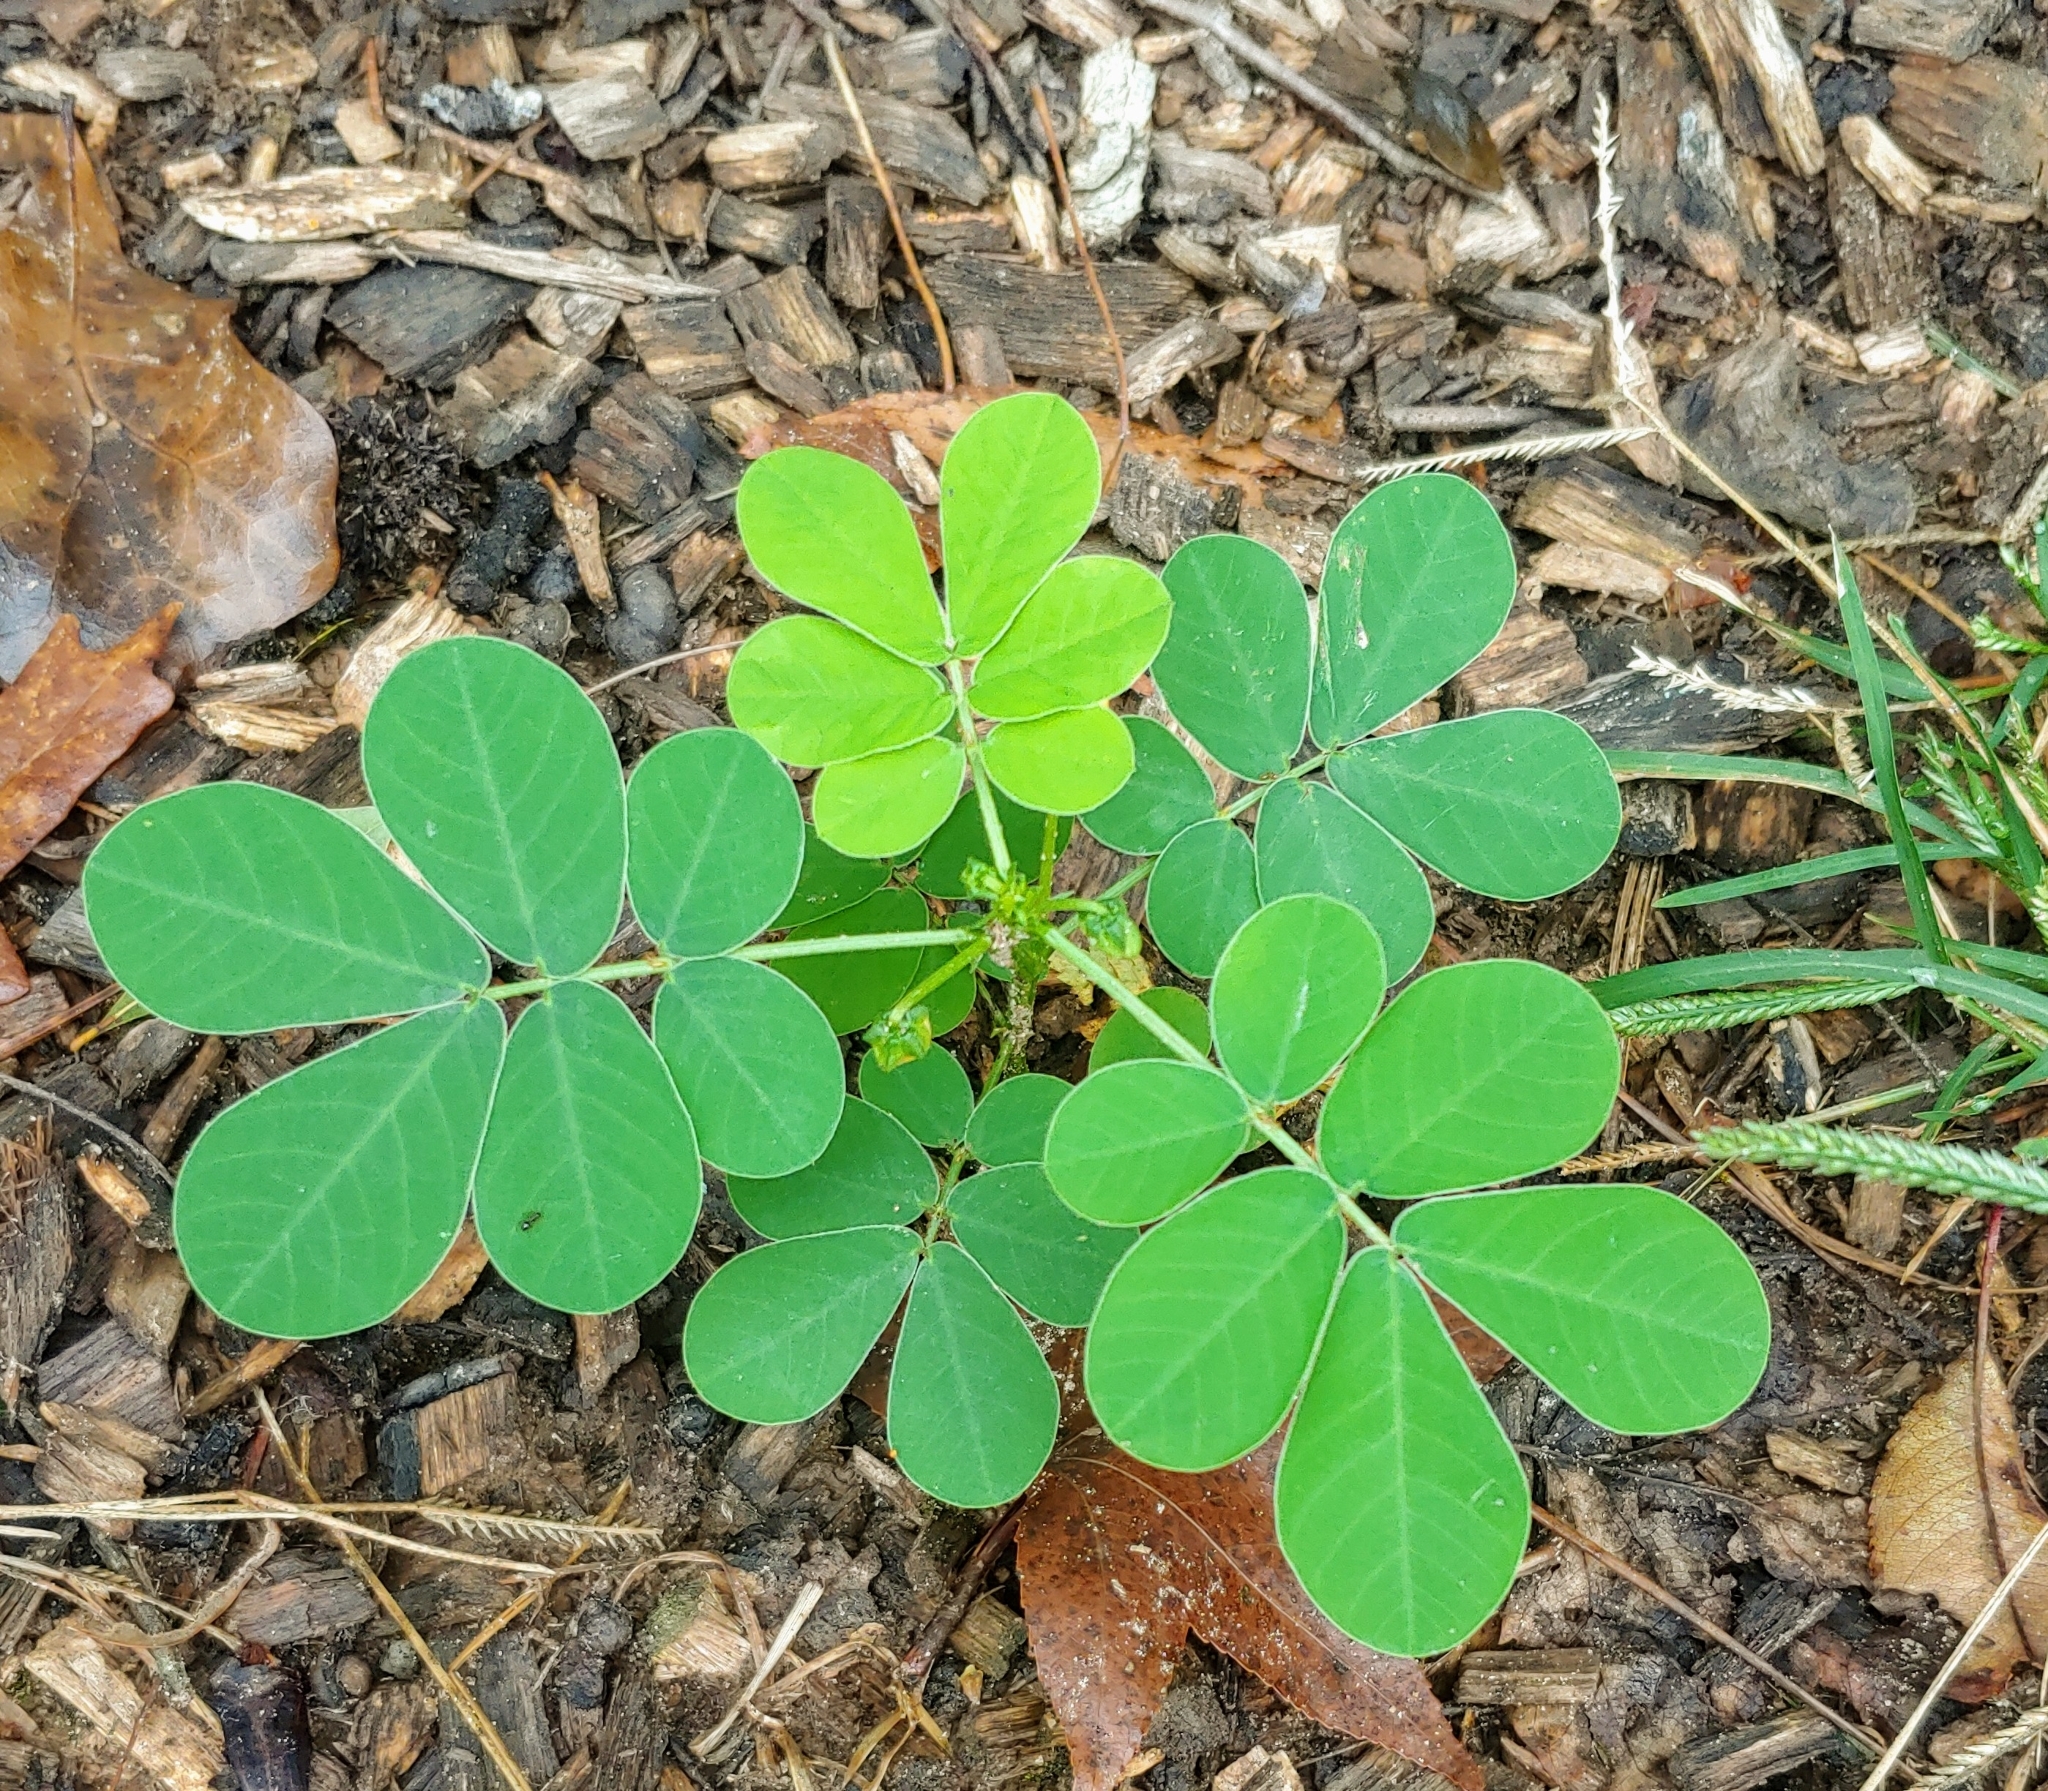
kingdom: Plantae
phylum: Tracheophyta
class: Magnoliopsida
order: Fabales
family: Fabaceae
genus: Senna
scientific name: Senna obtusifolia
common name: Java-bean
